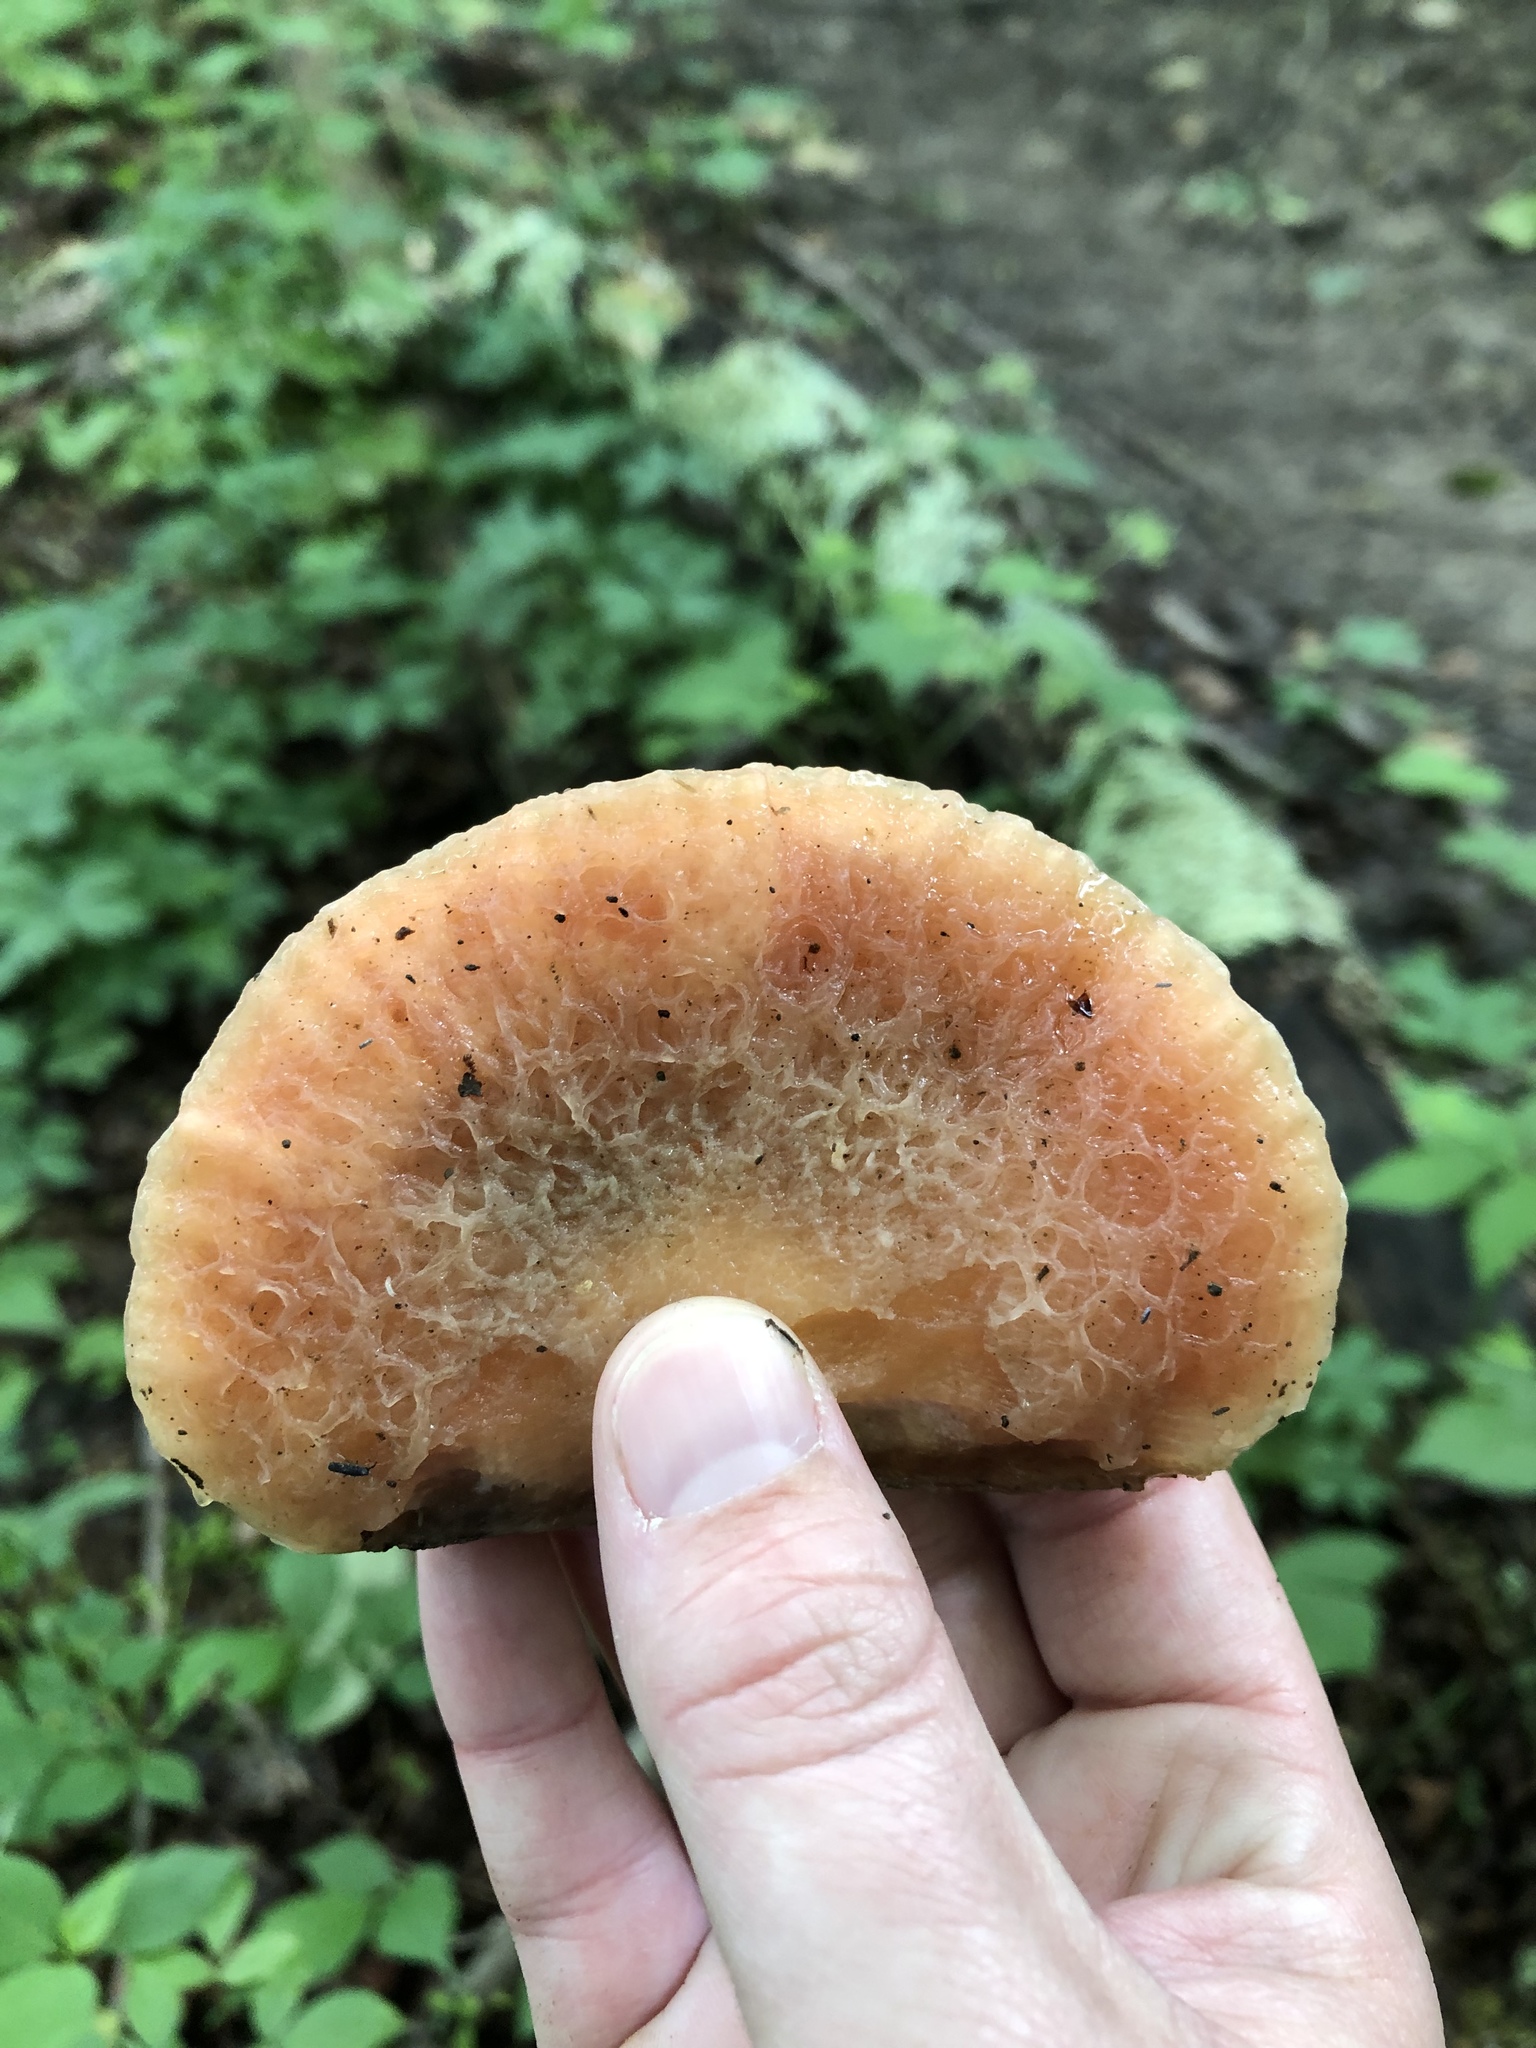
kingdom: Fungi
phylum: Basidiomycota
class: Agaricomycetes
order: Agaricales
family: Physalacriaceae
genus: Rhodotus
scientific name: Rhodotus palmatus
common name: Wrinkled peach
